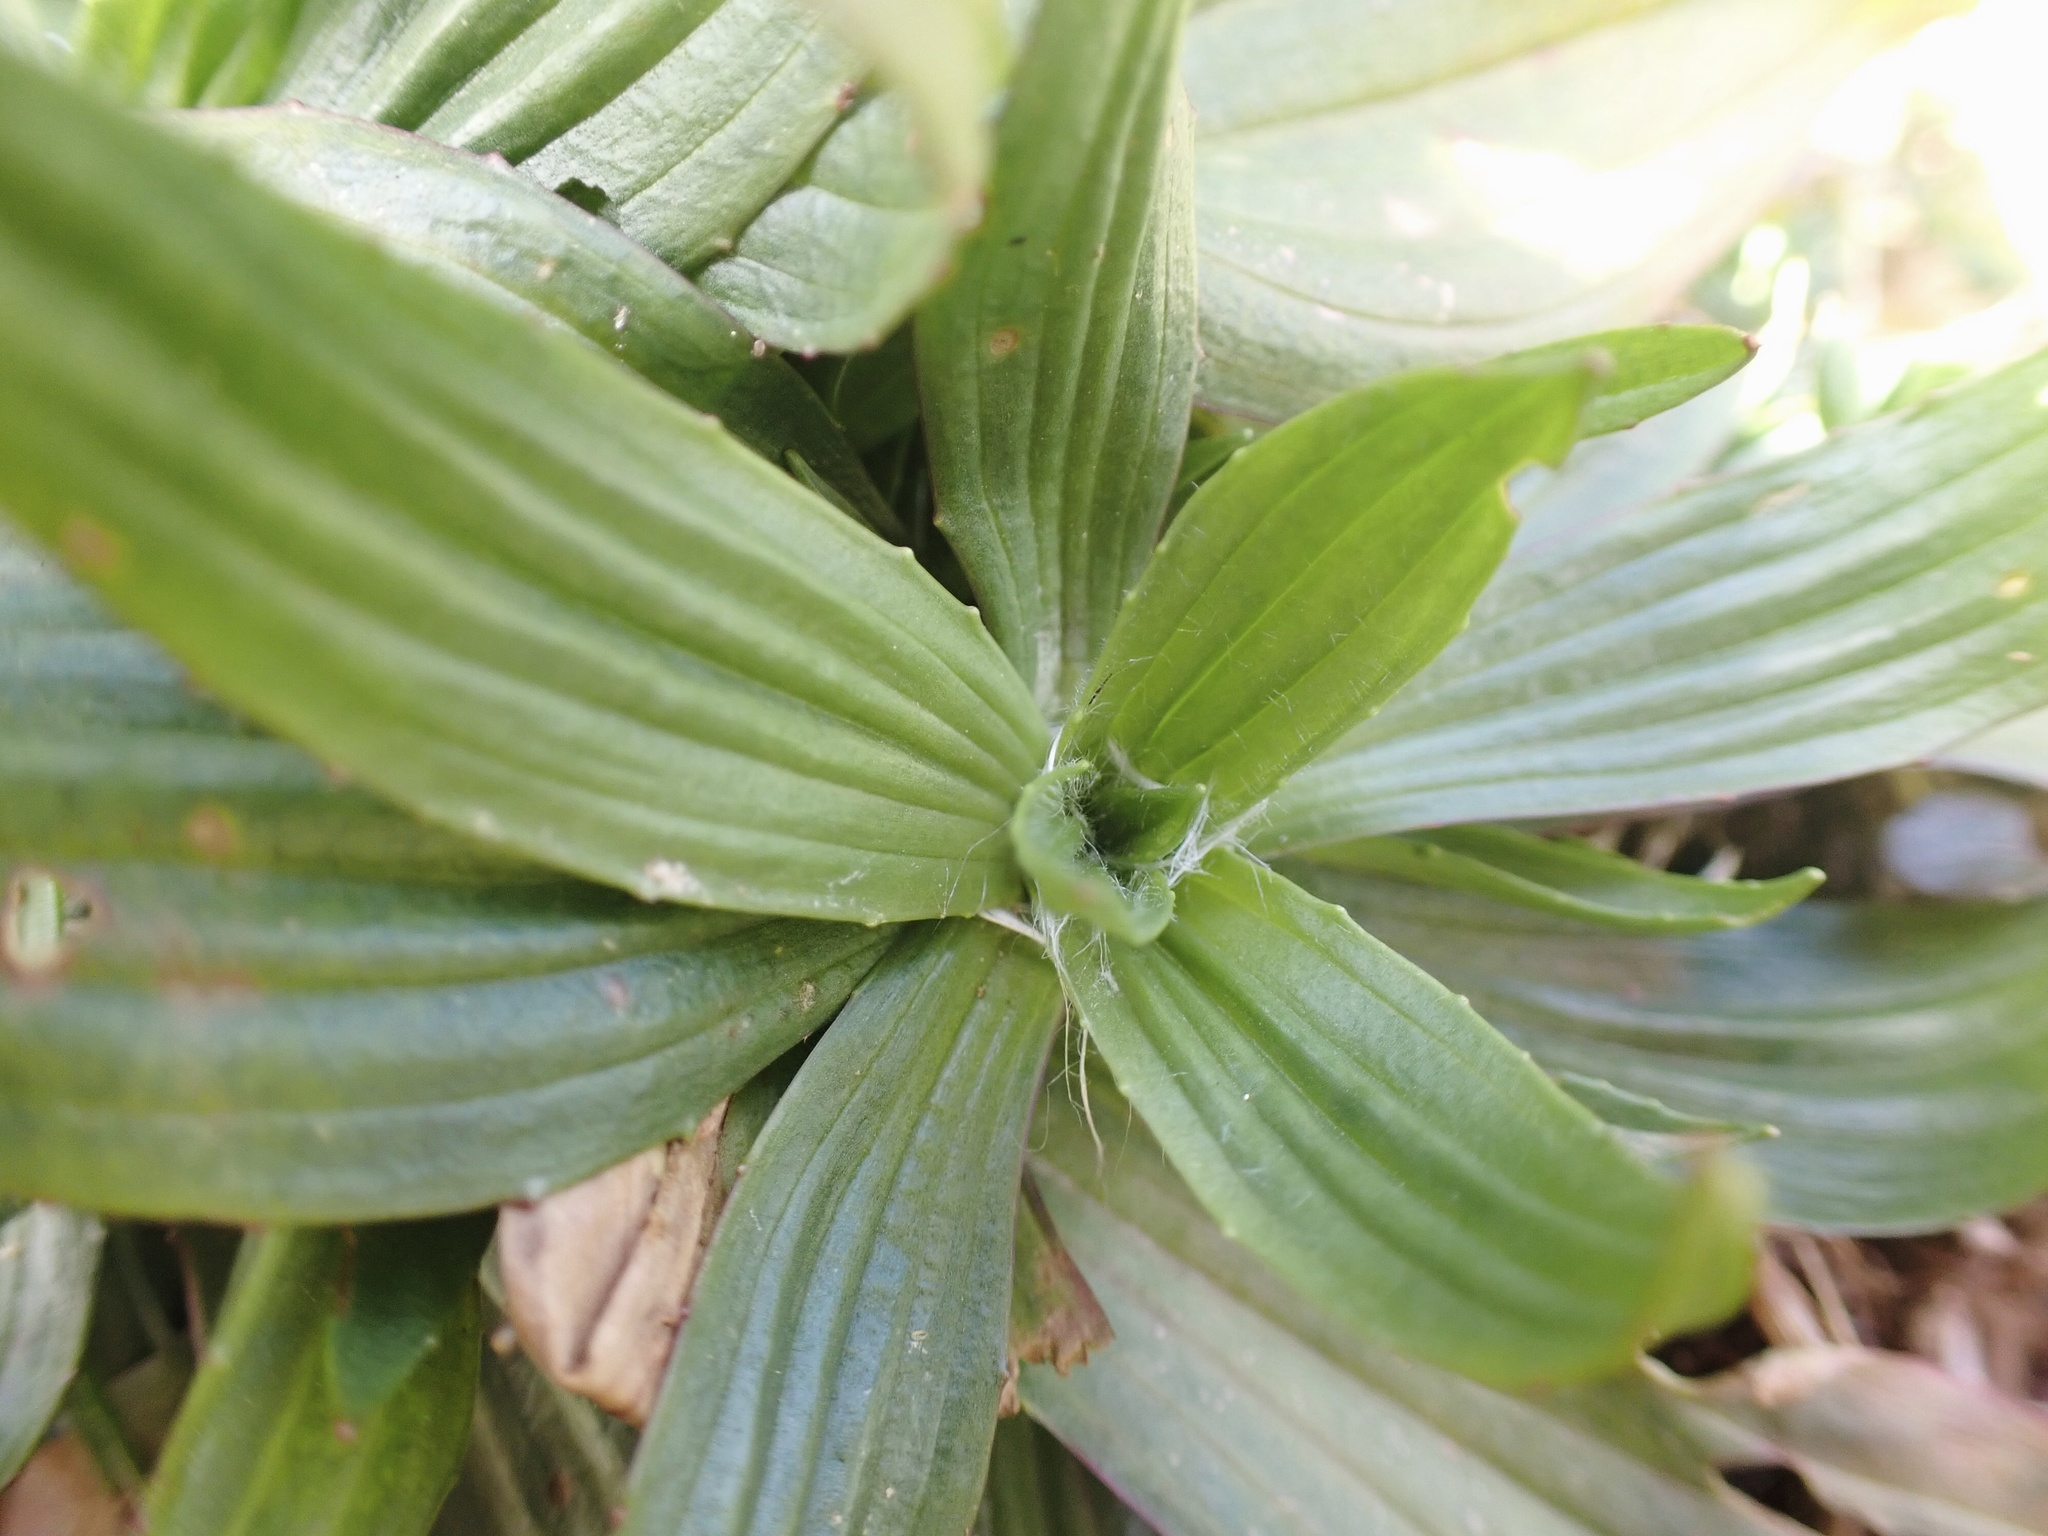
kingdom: Plantae
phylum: Tracheophyta
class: Magnoliopsida
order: Lamiales
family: Plantaginaceae
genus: Plantago
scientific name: Plantago lanceolata
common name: Ribwort plantain
